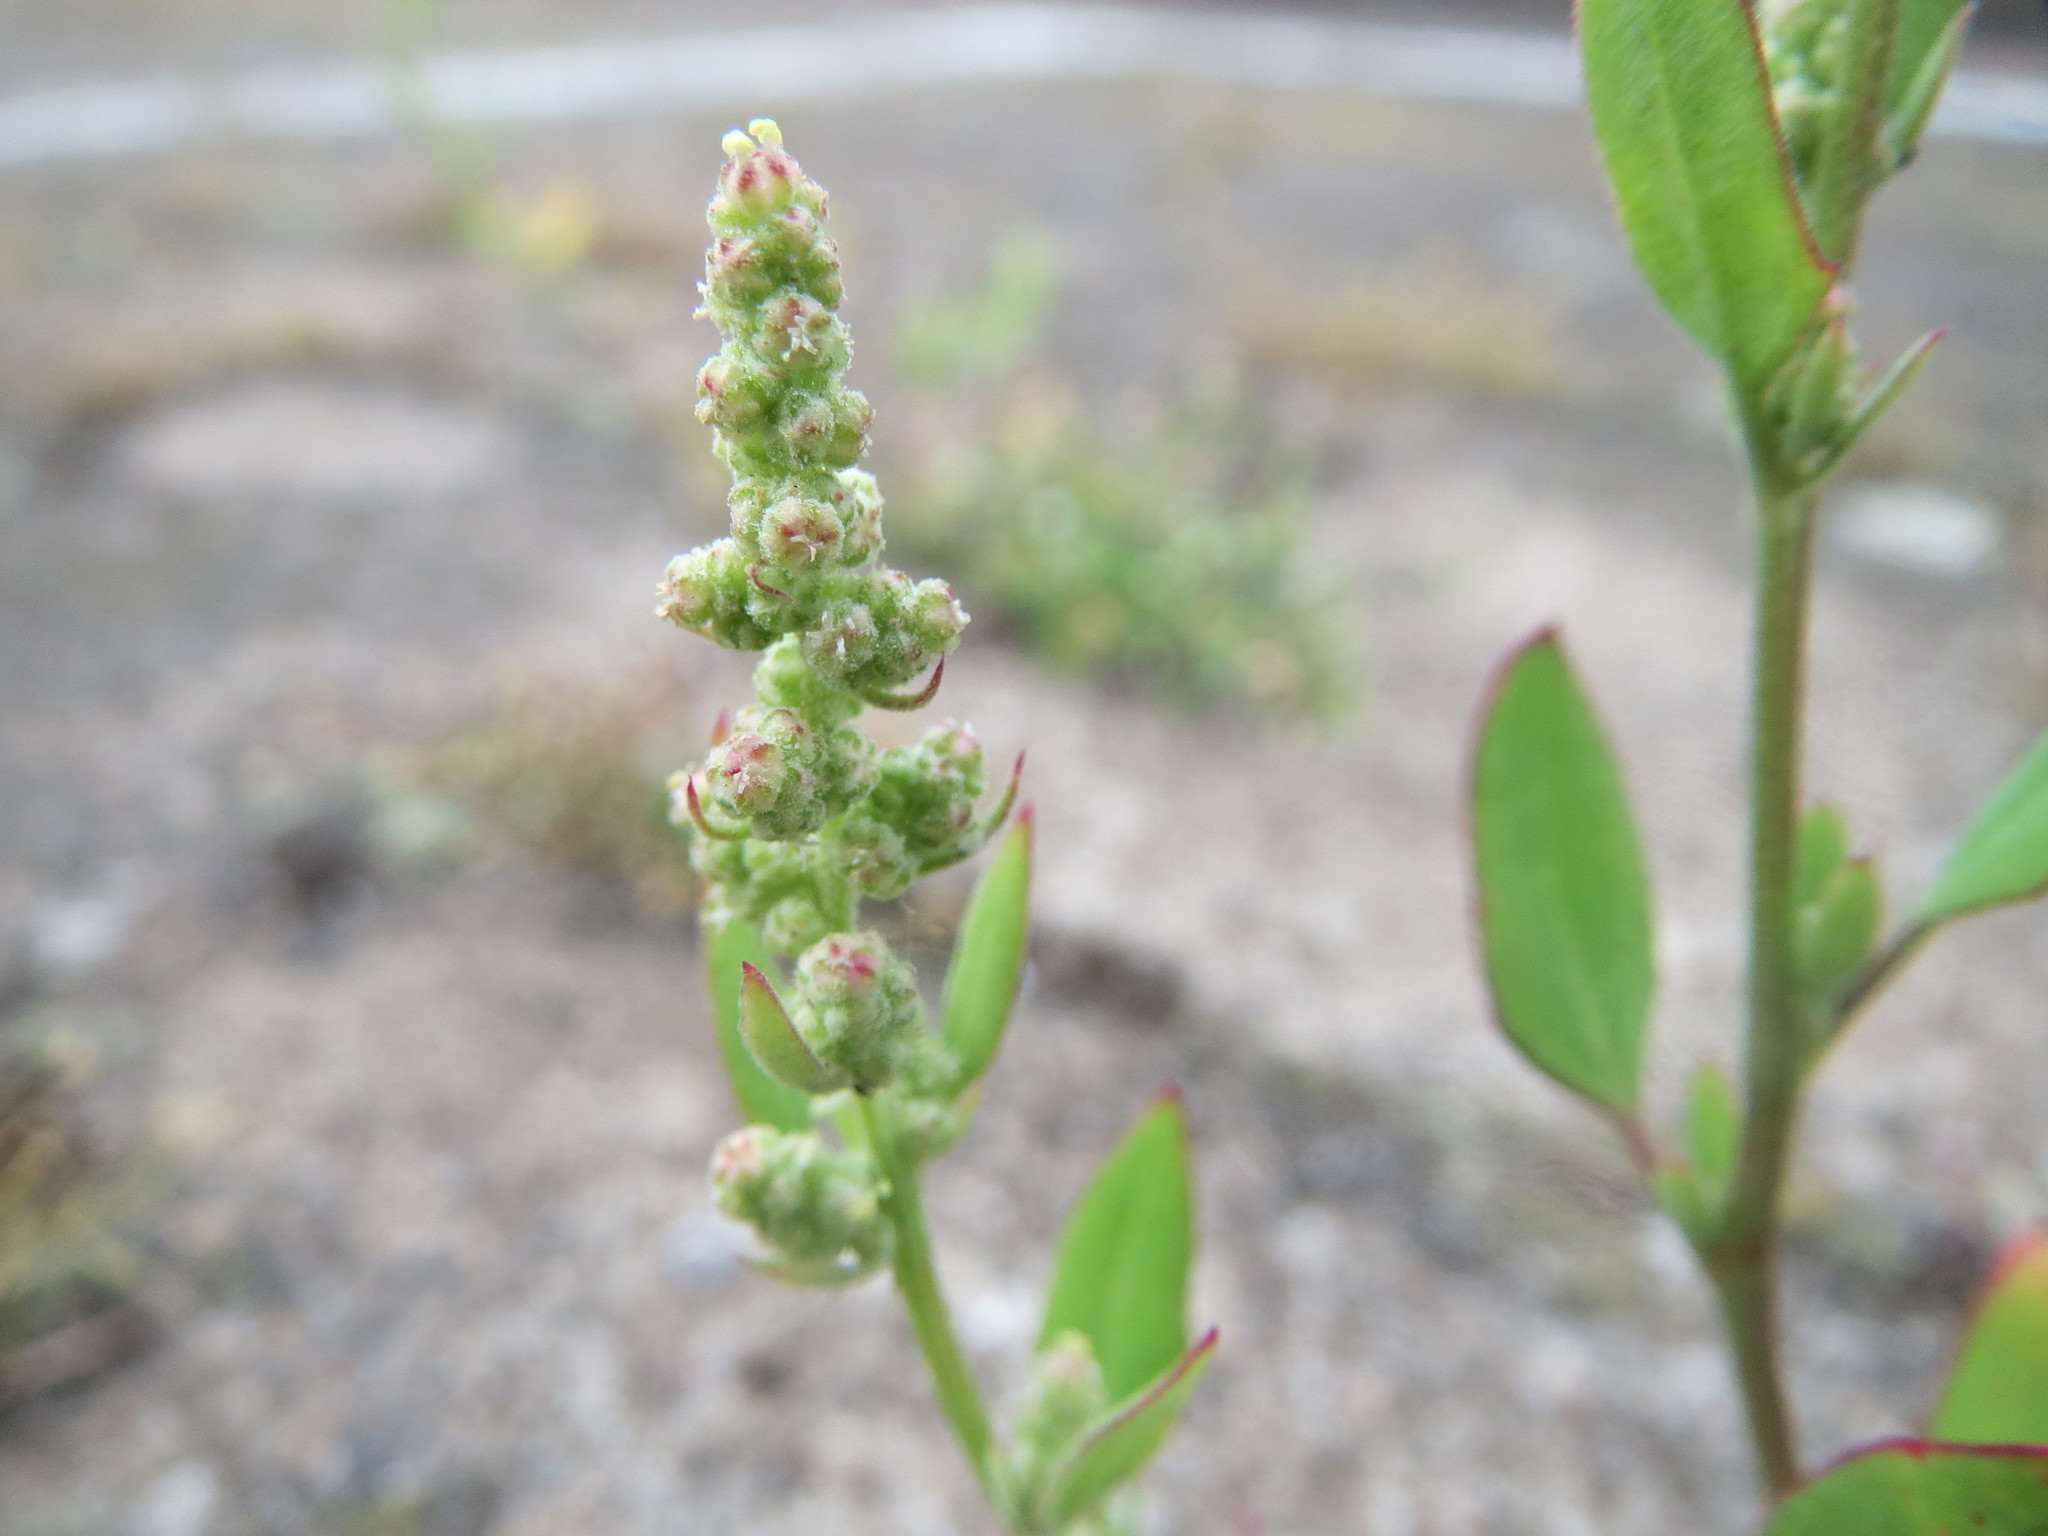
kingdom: Plantae
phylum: Tracheophyta
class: Magnoliopsida
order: Caryophyllales
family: Amaranthaceae
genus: Chenopodium
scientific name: Chenopodium album
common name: Fat-hen
